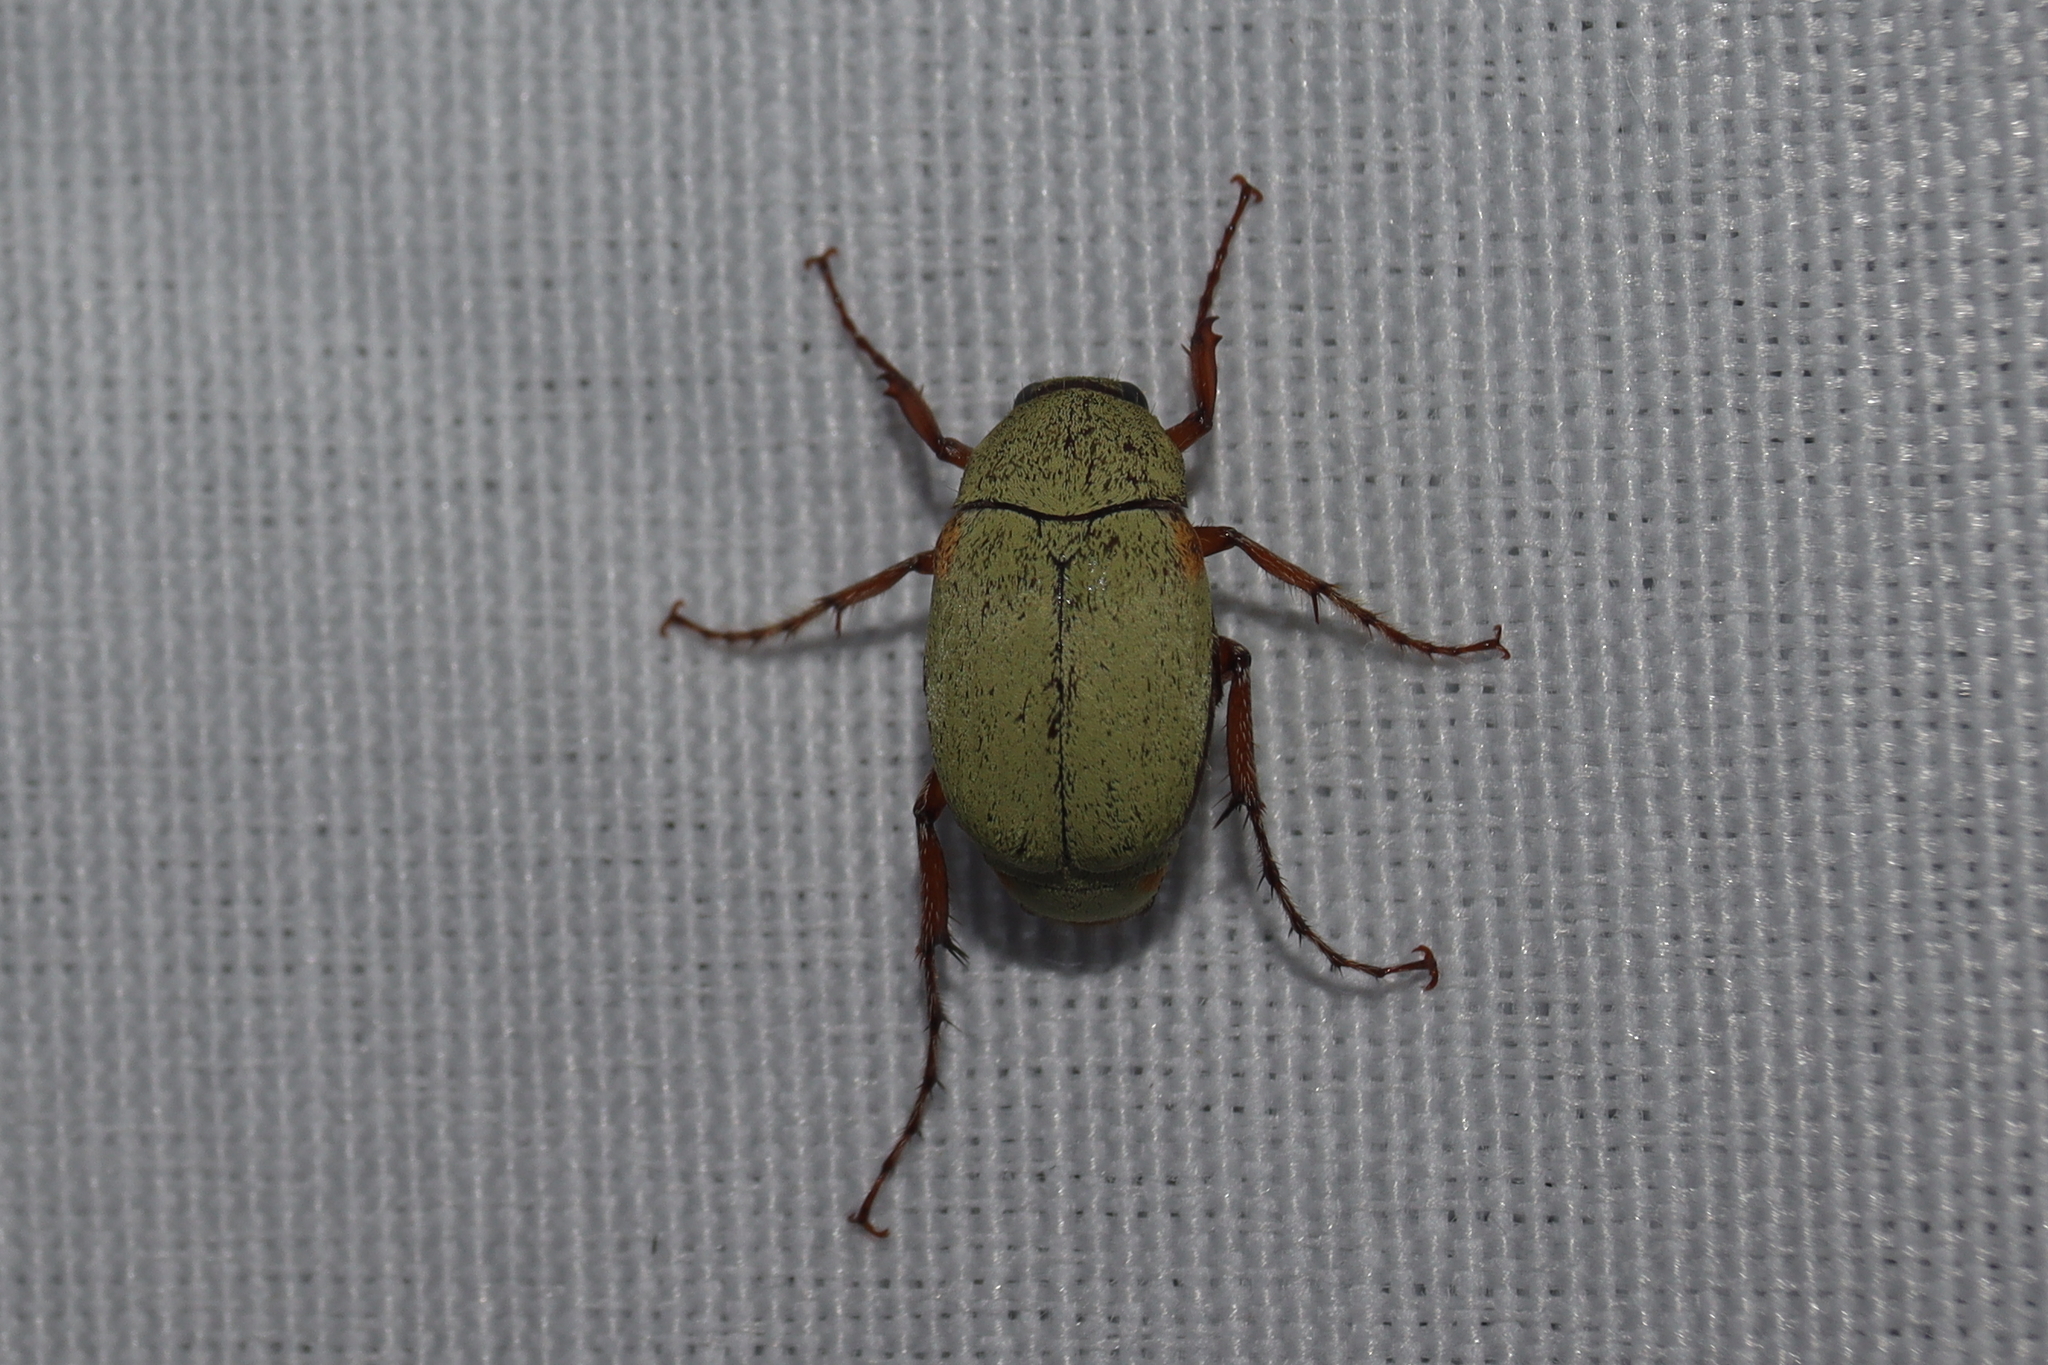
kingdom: Animalia
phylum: Arthropoda
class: Insecta
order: Coleoptera
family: Scarabaeidae
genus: Isonychus
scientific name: Isonychus sulphureus
